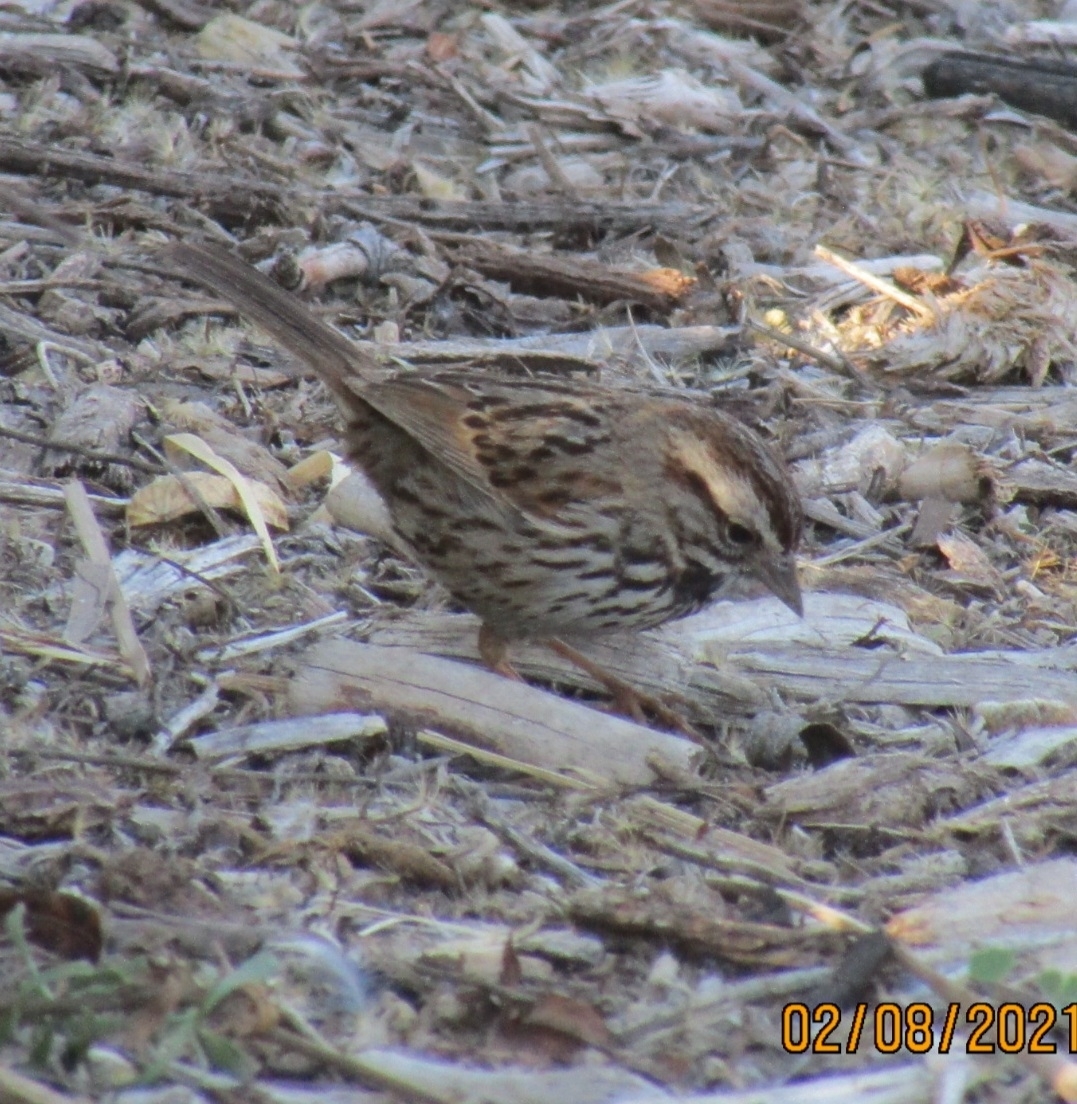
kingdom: Animalia
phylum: Chordata
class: Aves
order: Passeriformes
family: Passerellidae
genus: Melospiza
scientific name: Melospiza melodia
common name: Song sparrow
